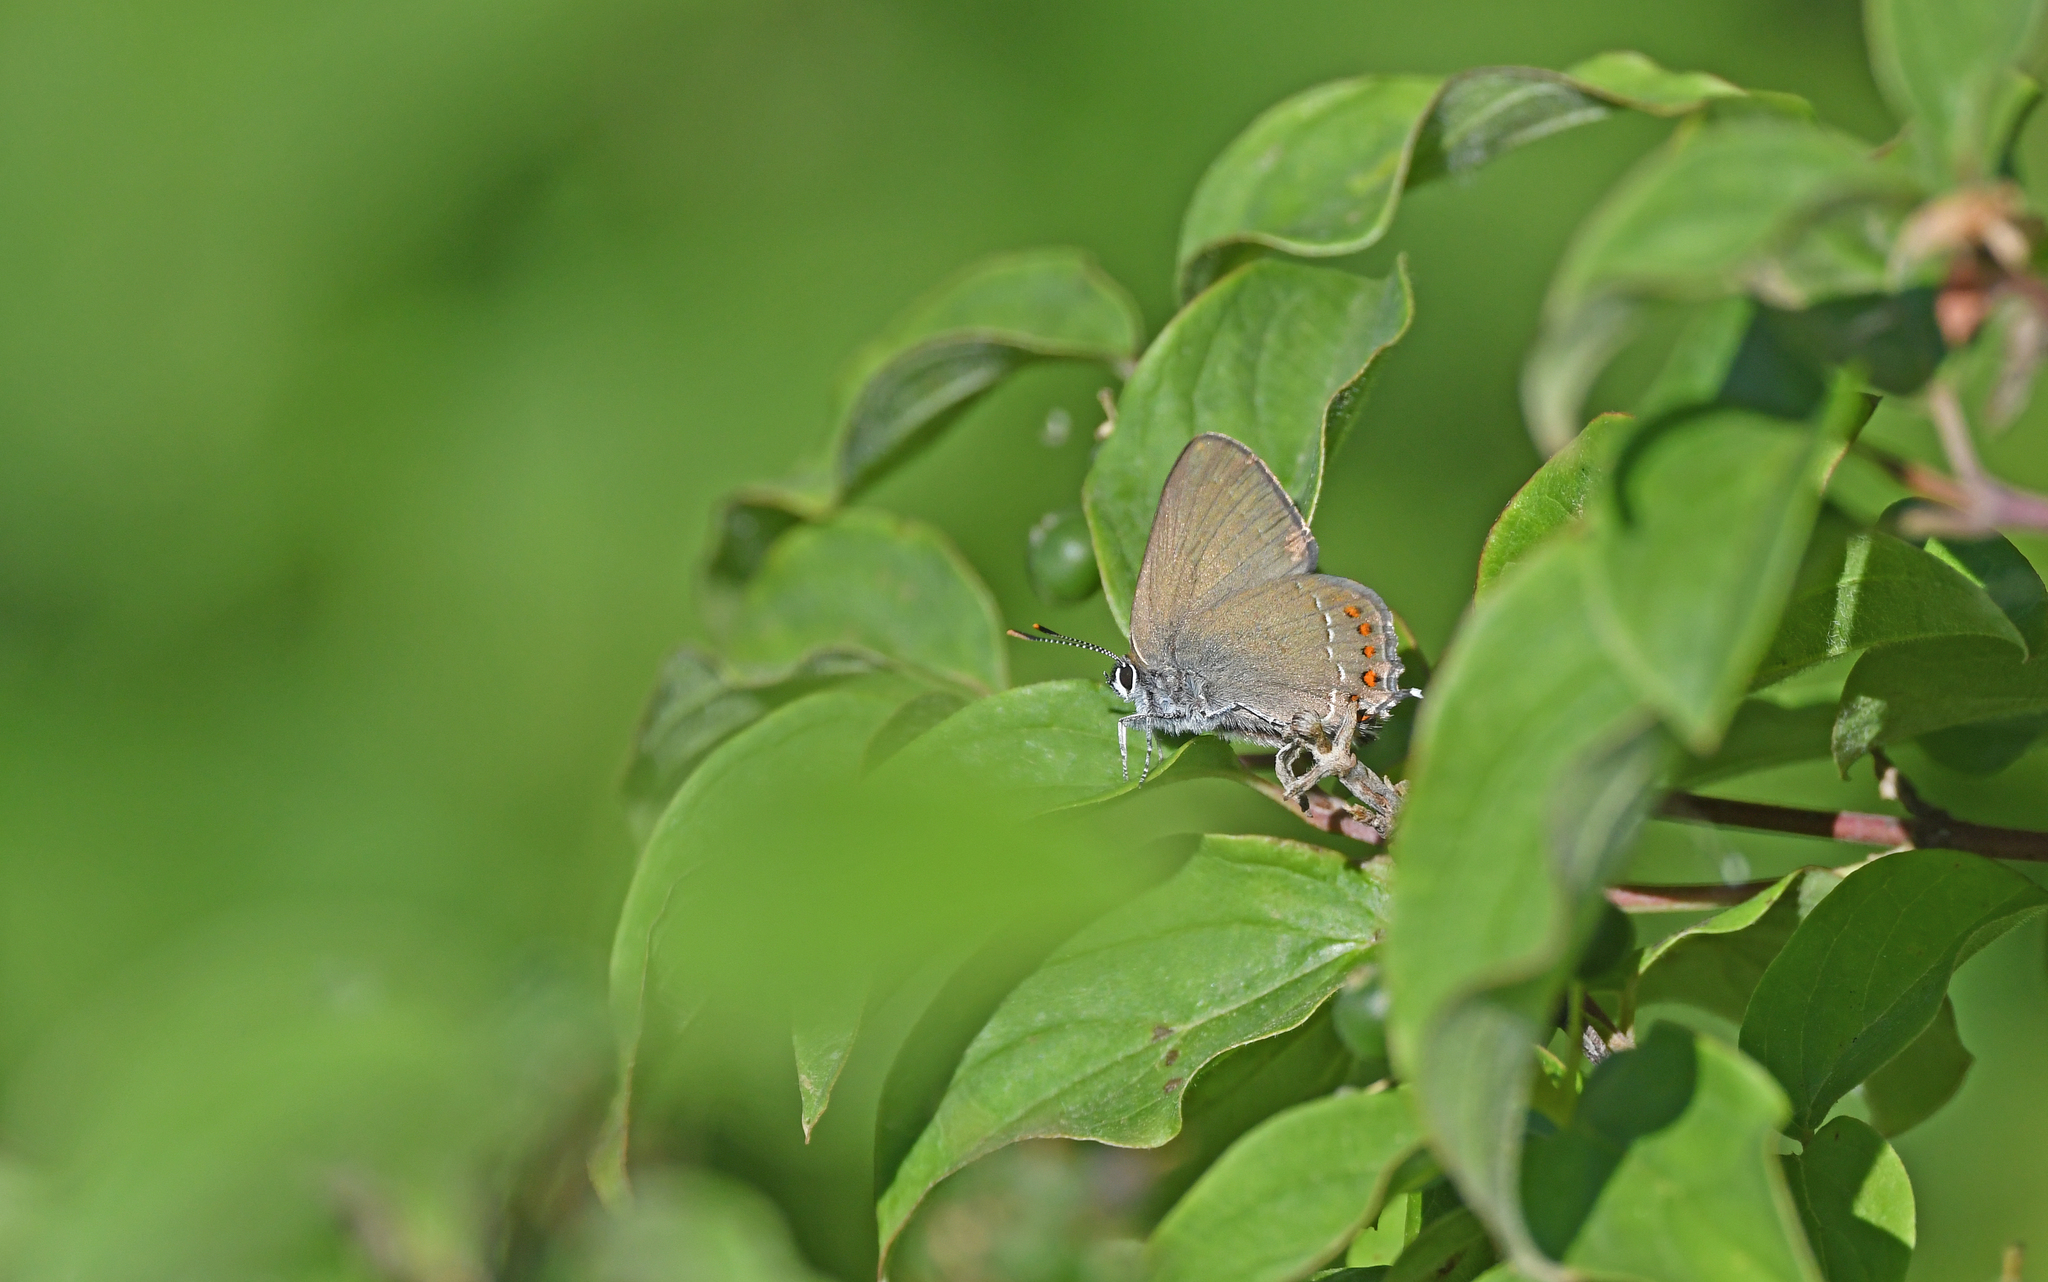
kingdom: Animalia
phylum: Arthropoda
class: Insecta
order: Lepidoptera
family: Lycaenidae
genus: Fixsenia
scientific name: Fixsenia esculi
